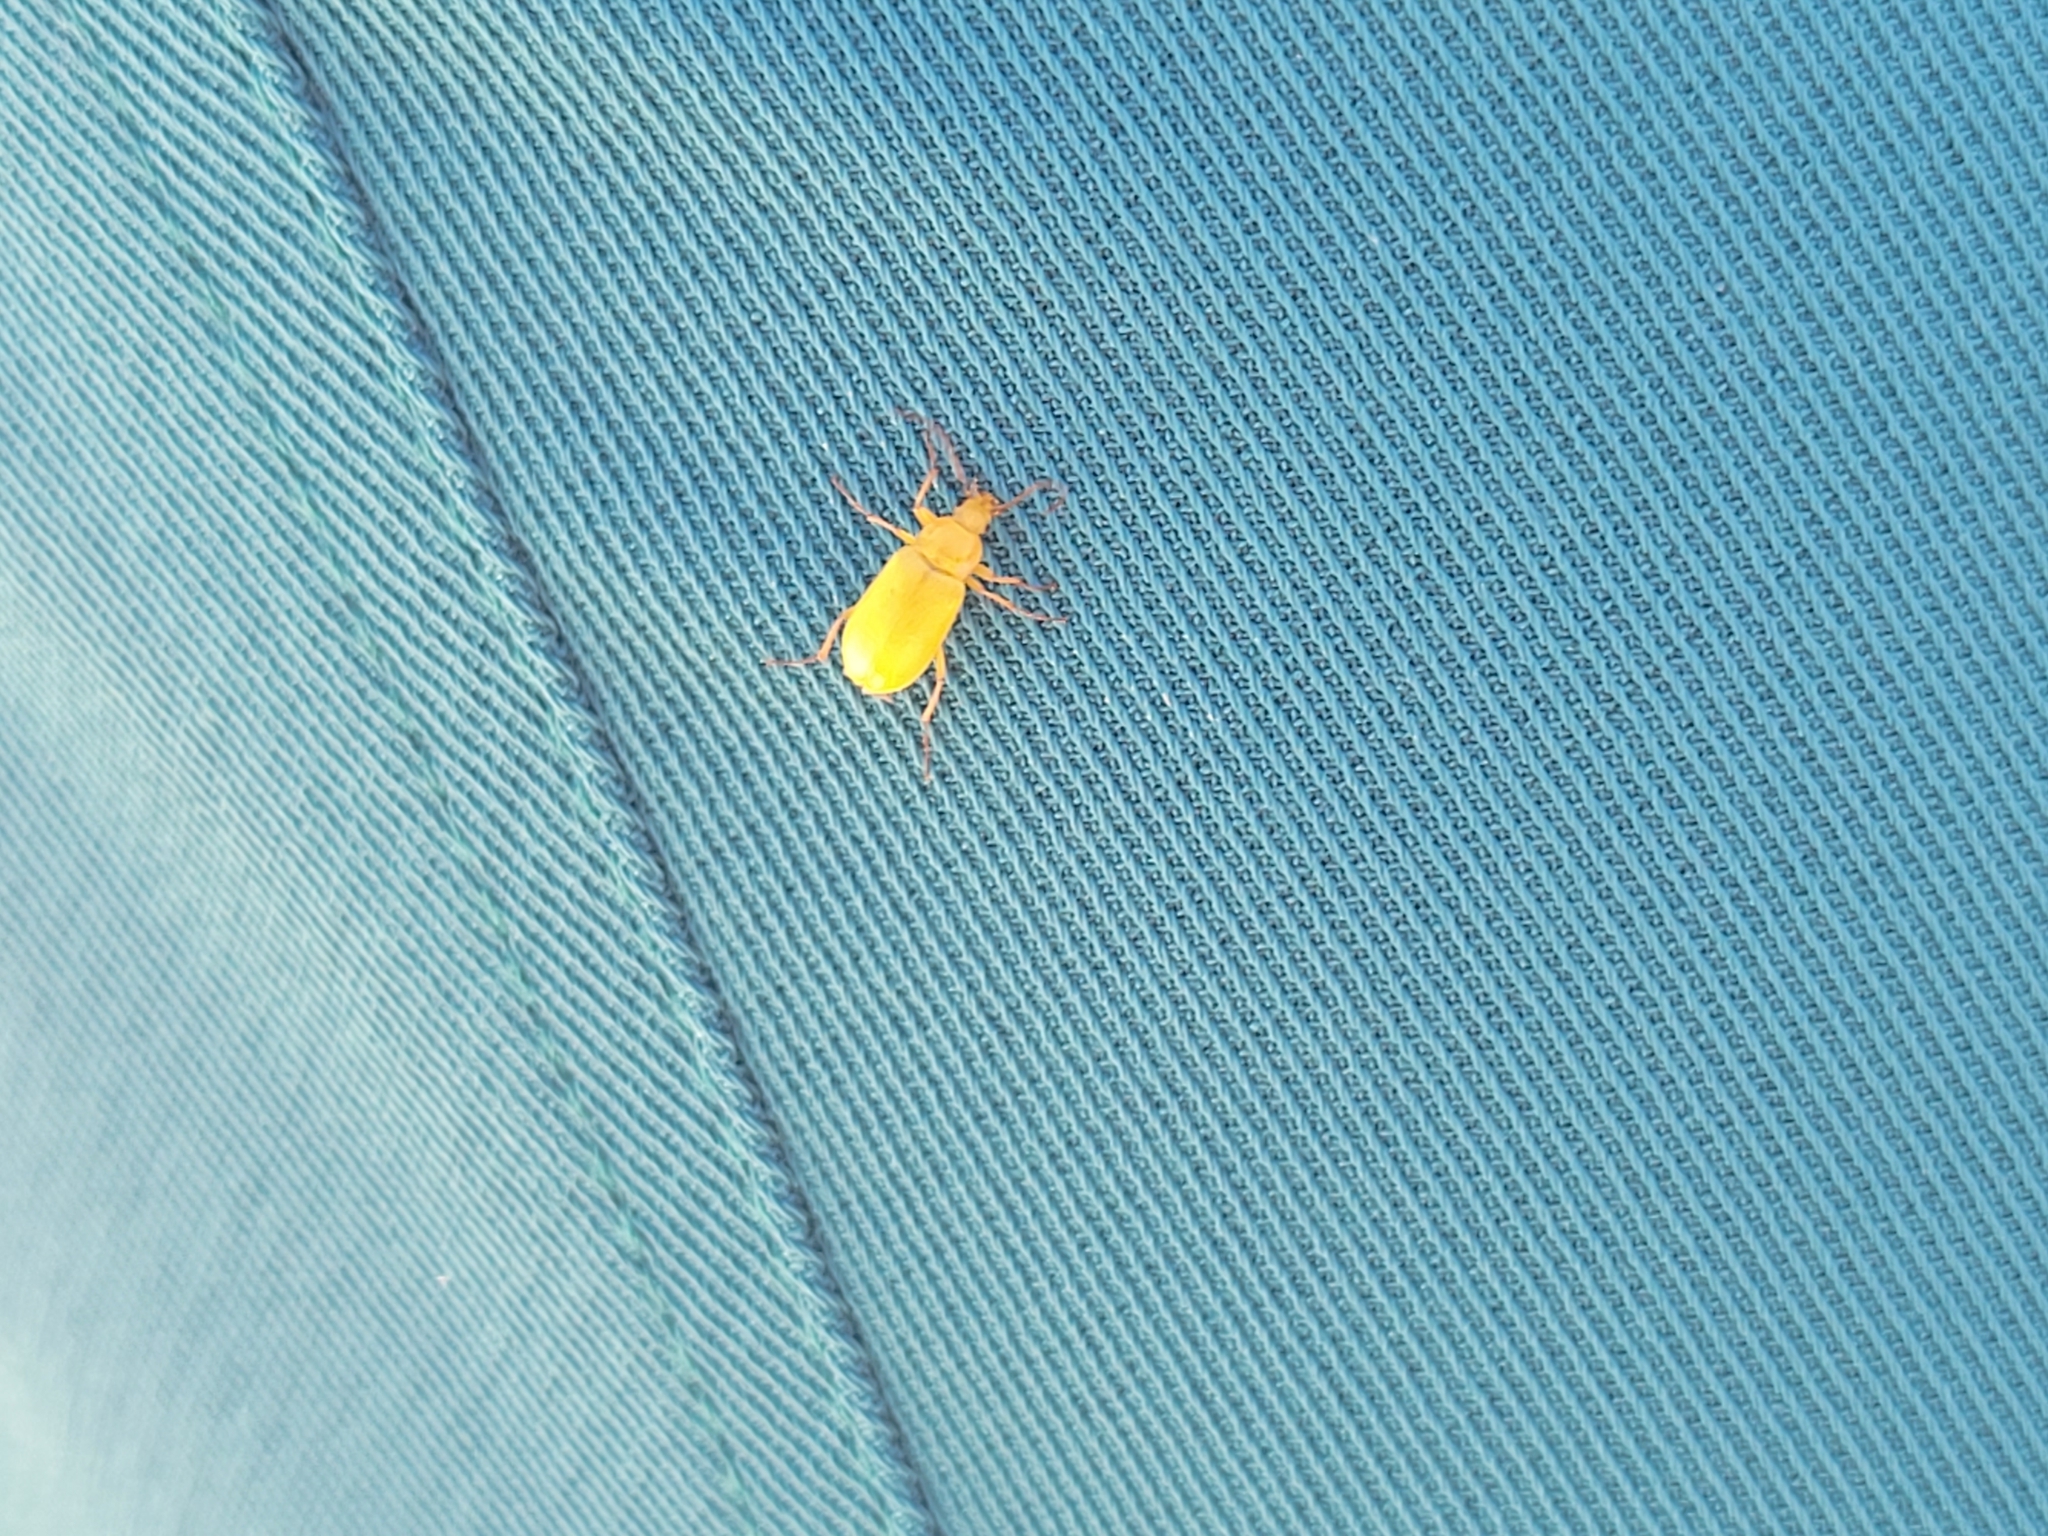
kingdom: Animalia
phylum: Arthropoda
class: Insecta
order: Coleoptera
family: Tenebrionidae
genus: Cteniopus
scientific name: Cteniopus sulphureus
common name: Sulphur beetle
